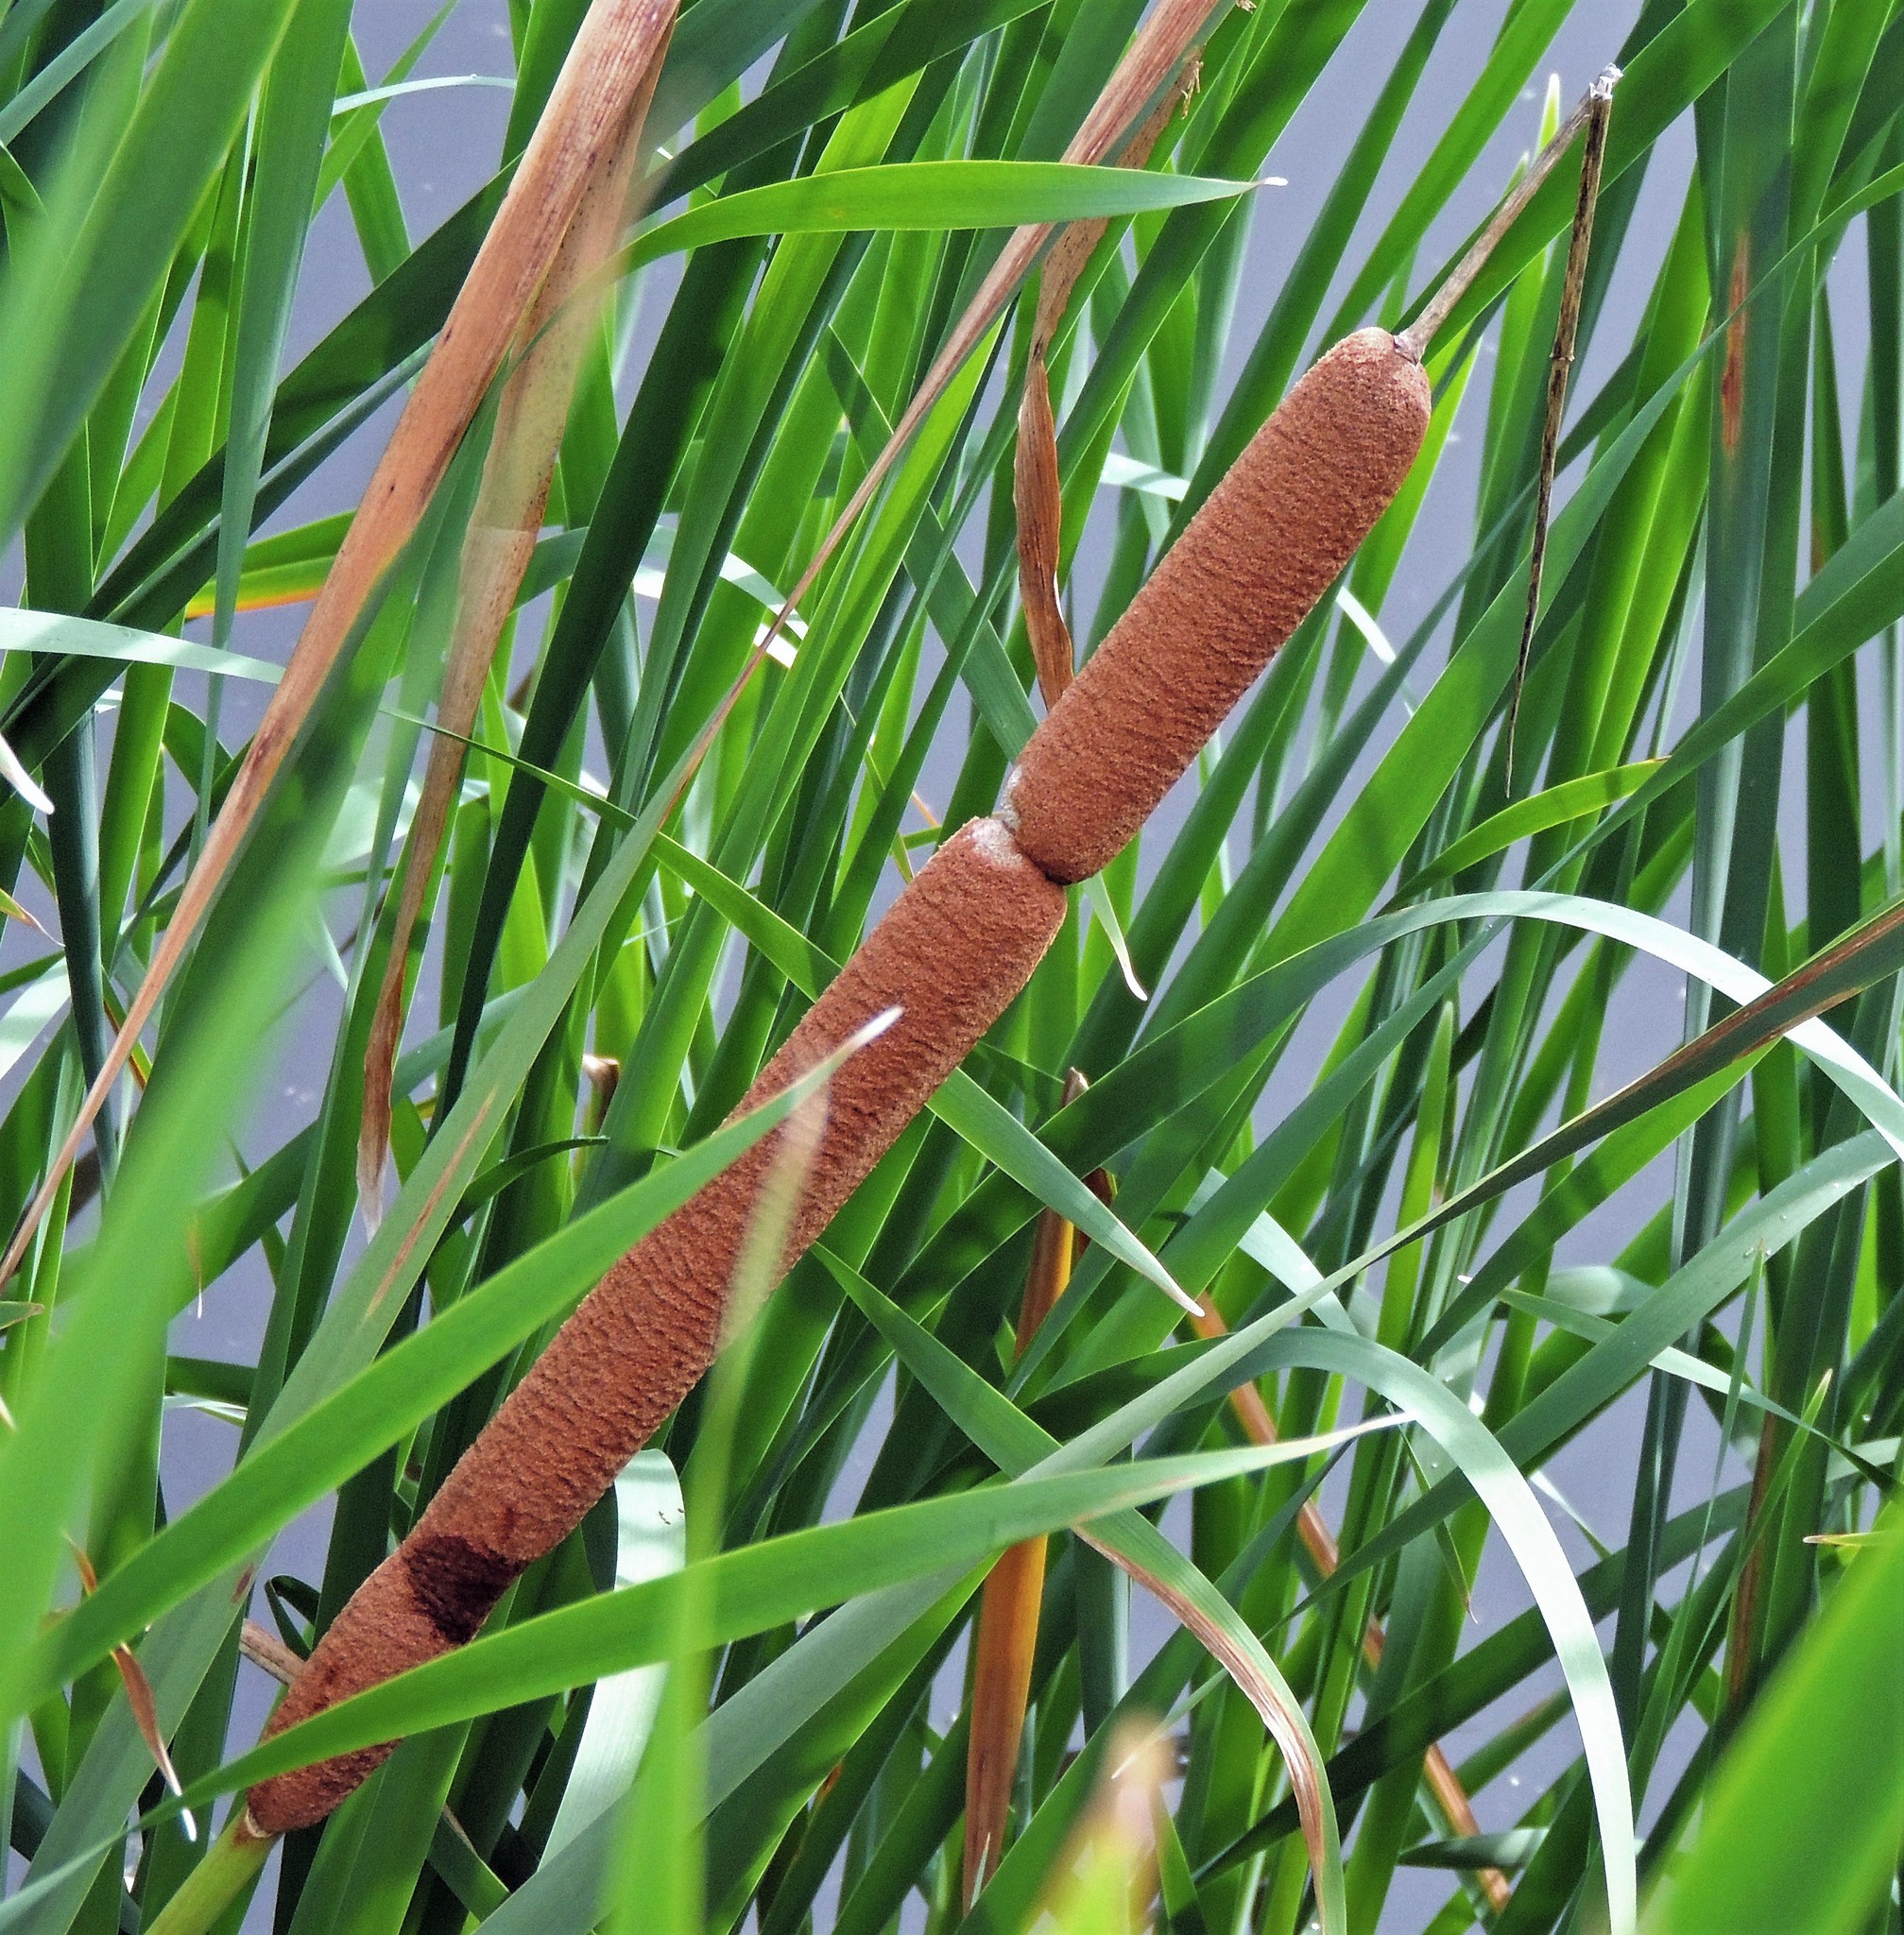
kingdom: Plantae
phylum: Tracheophyta
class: Liliopsida
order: Poales
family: Typhaceae
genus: Typha
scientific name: Typha latifolia
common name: Broadleaf cattail
